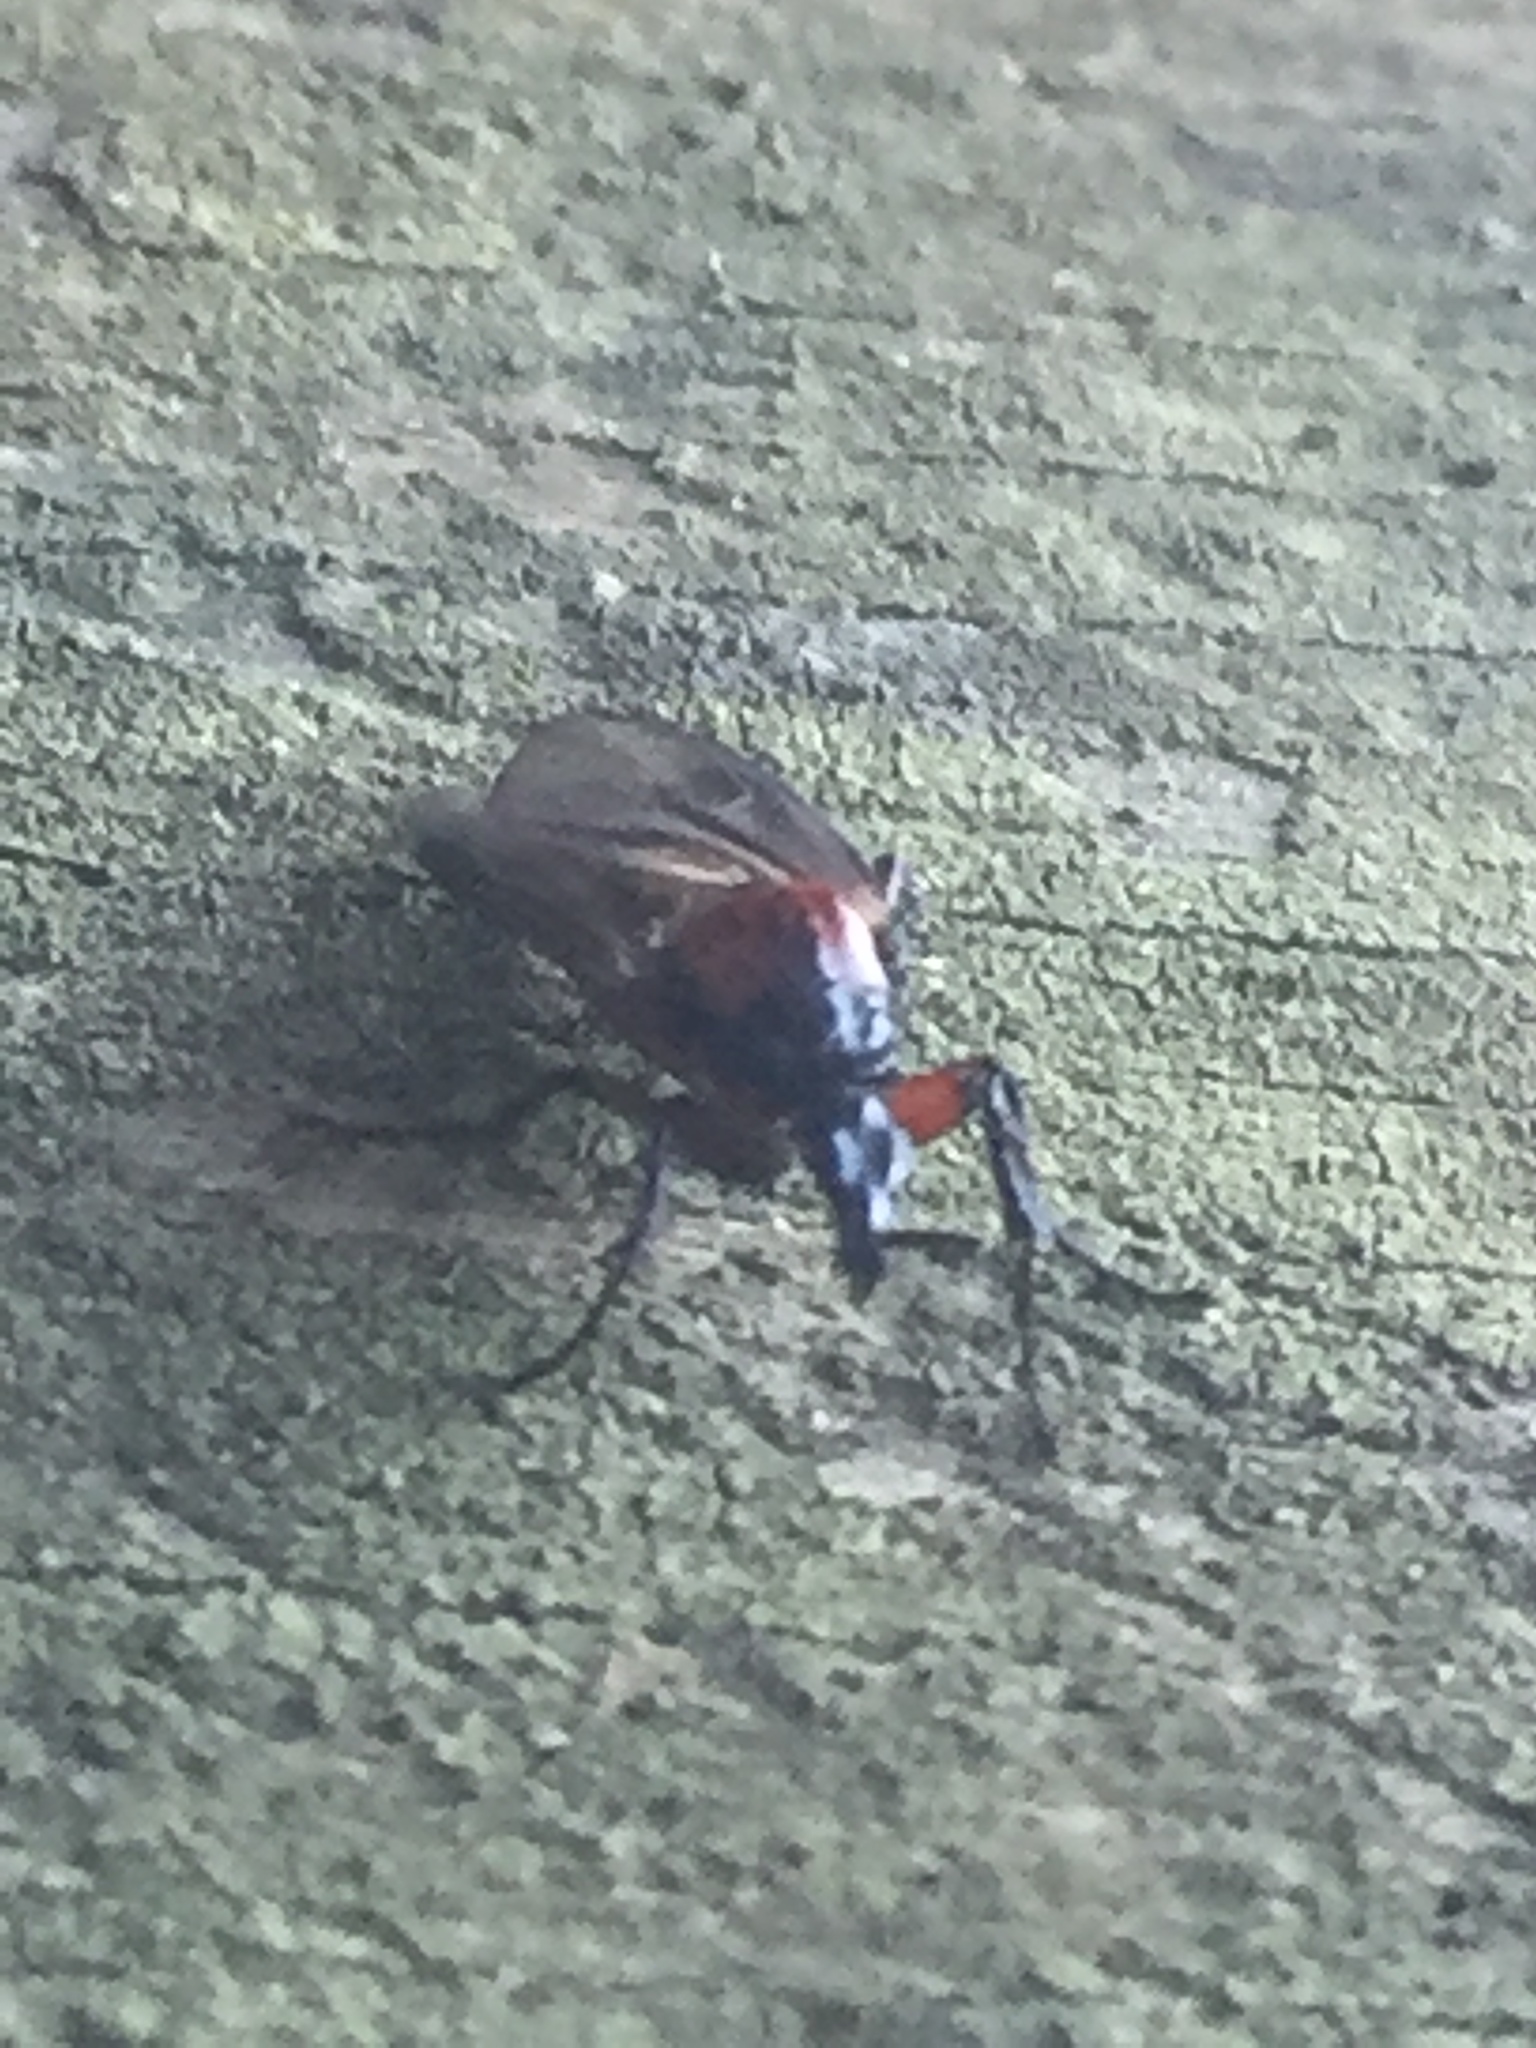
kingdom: Animalia
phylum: Arthropoda
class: Insecta
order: Diptera
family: Bibionidae
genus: Dilophus
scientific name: Dilophus nigrostigma
